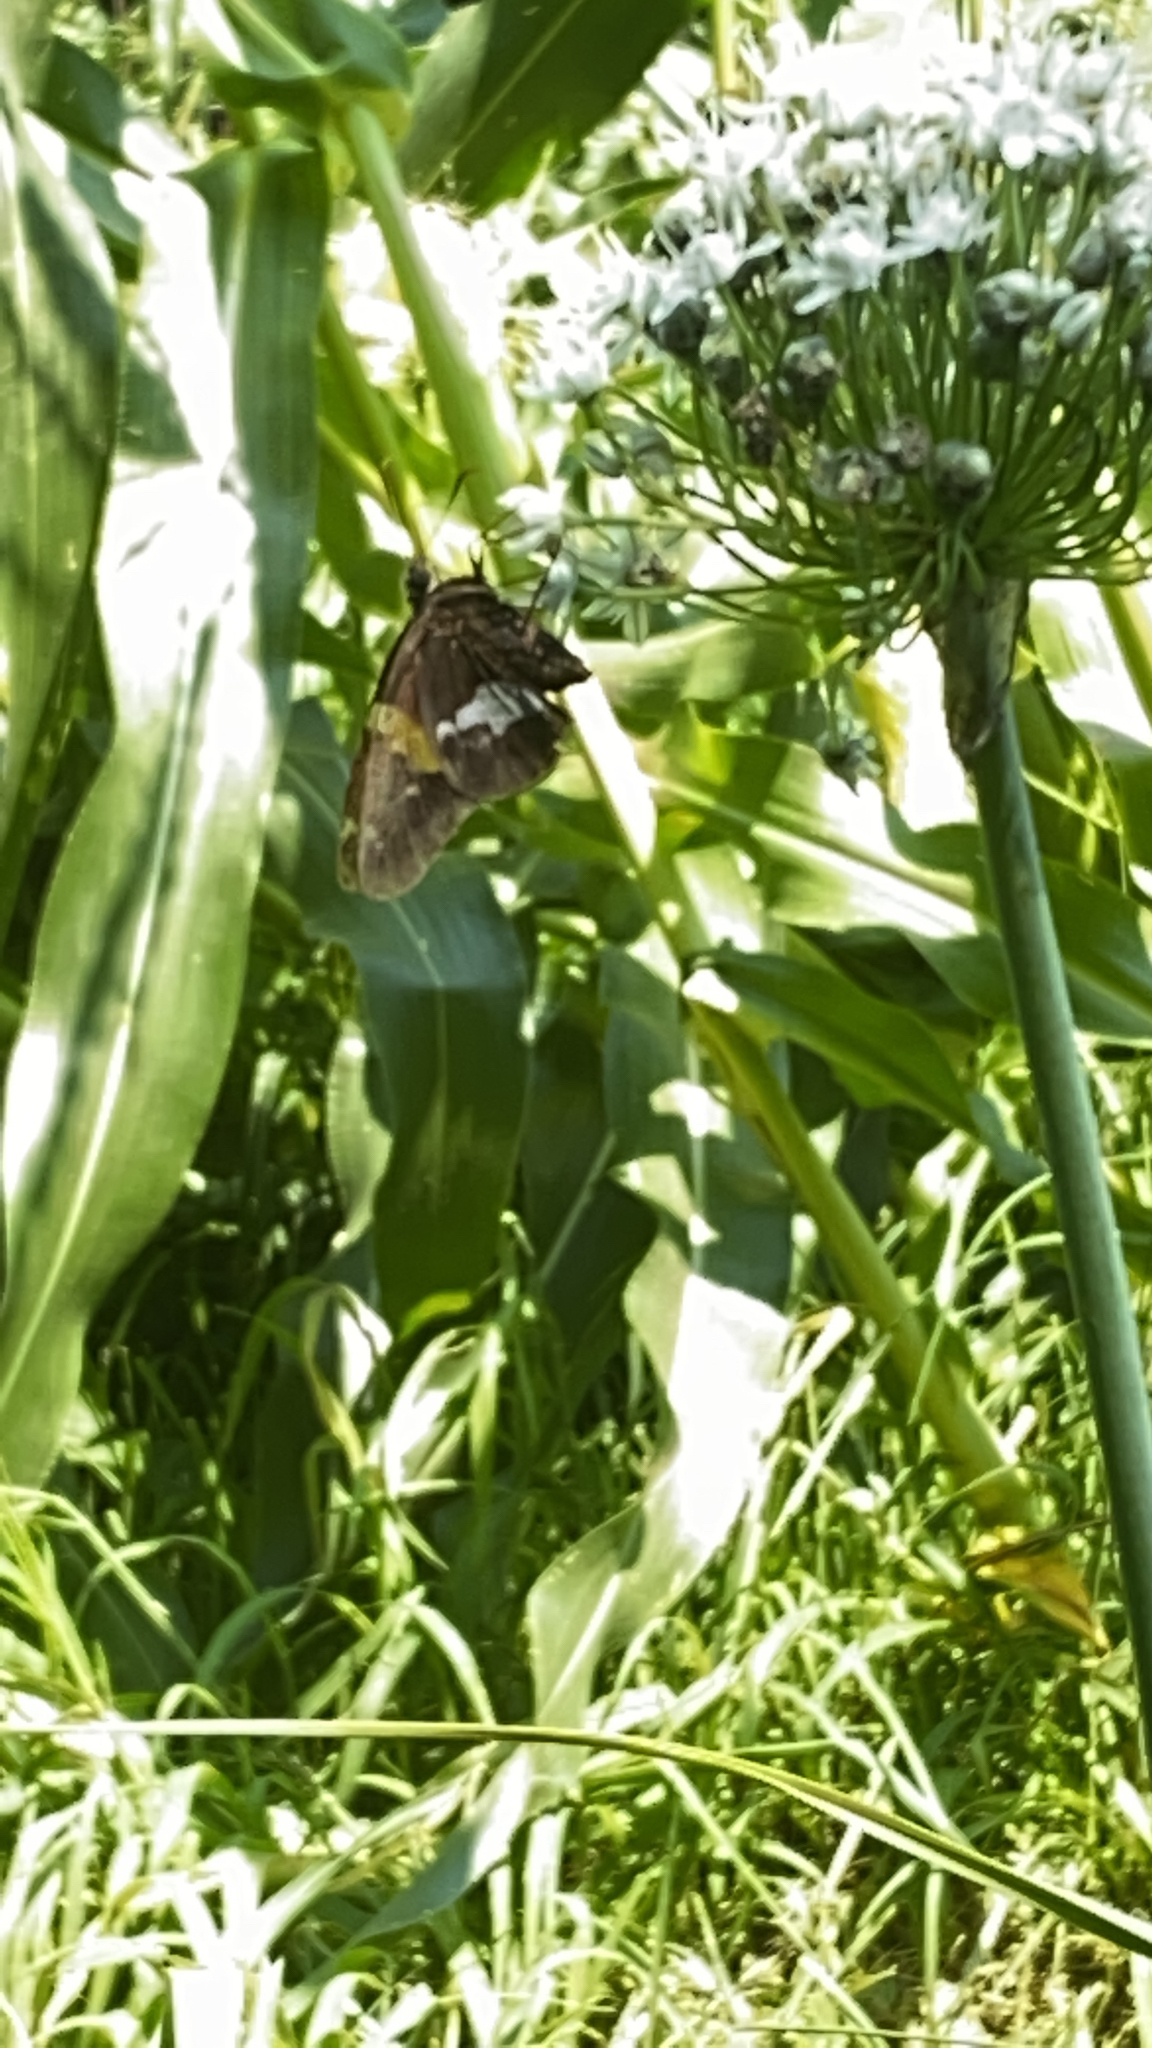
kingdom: Animalia
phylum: Arthropoda
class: Insecta
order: Lepidoptera
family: Hesperiidae
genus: Epargyreus
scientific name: Epargyreus clarus
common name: Silver-spotted skipper
